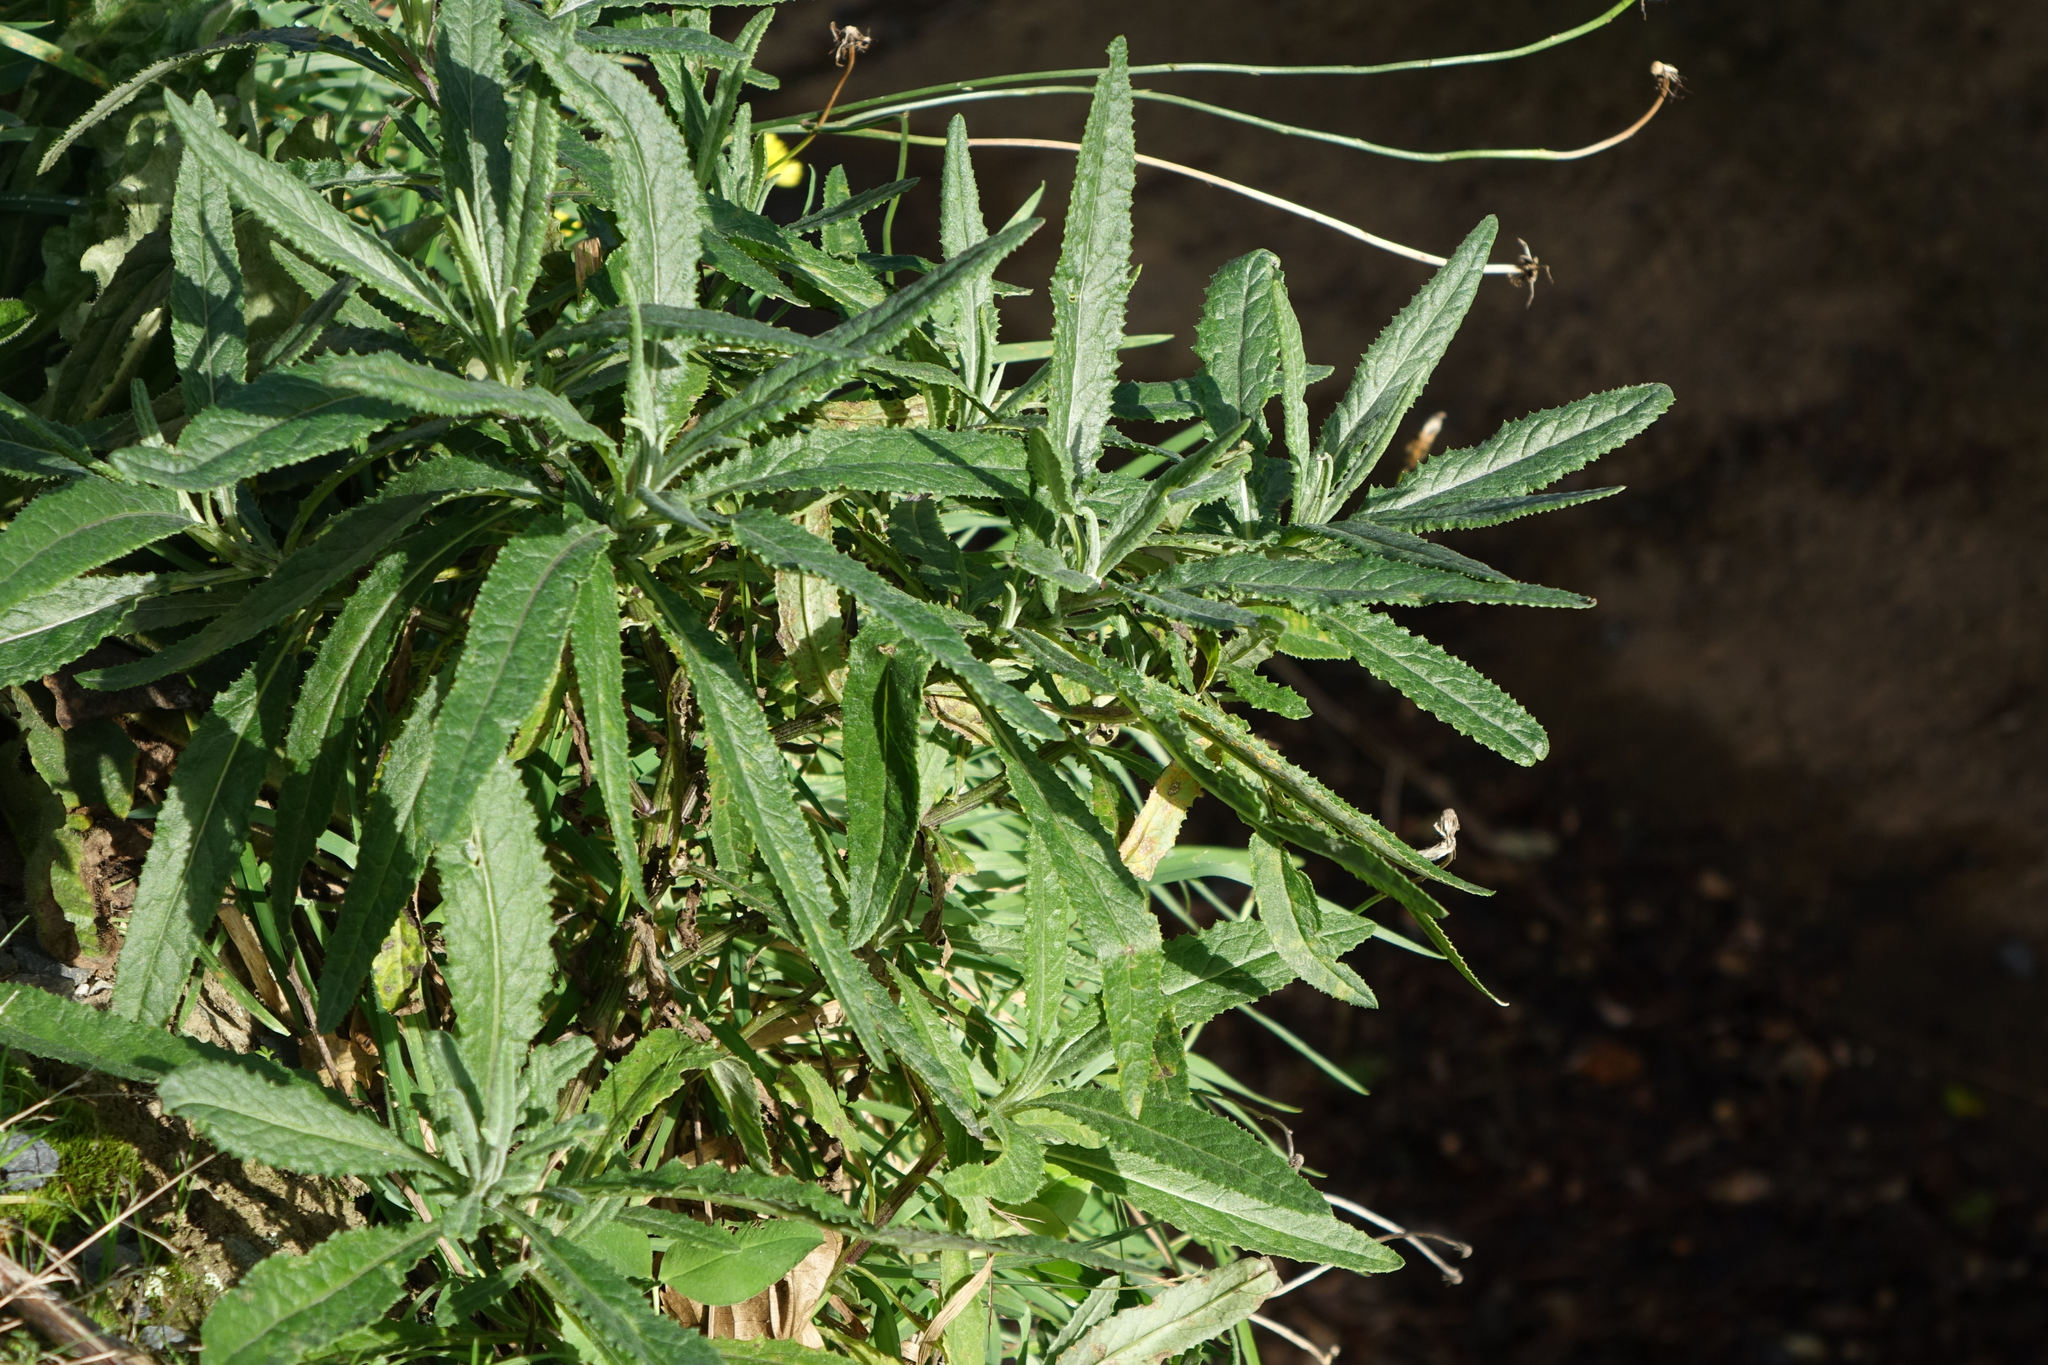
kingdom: Plantae
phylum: Tracheophyta
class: Magnoliopsida
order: Asterales
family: Asteraceae
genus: Senecio
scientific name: Senecio minimus
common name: Toothed fireweed
